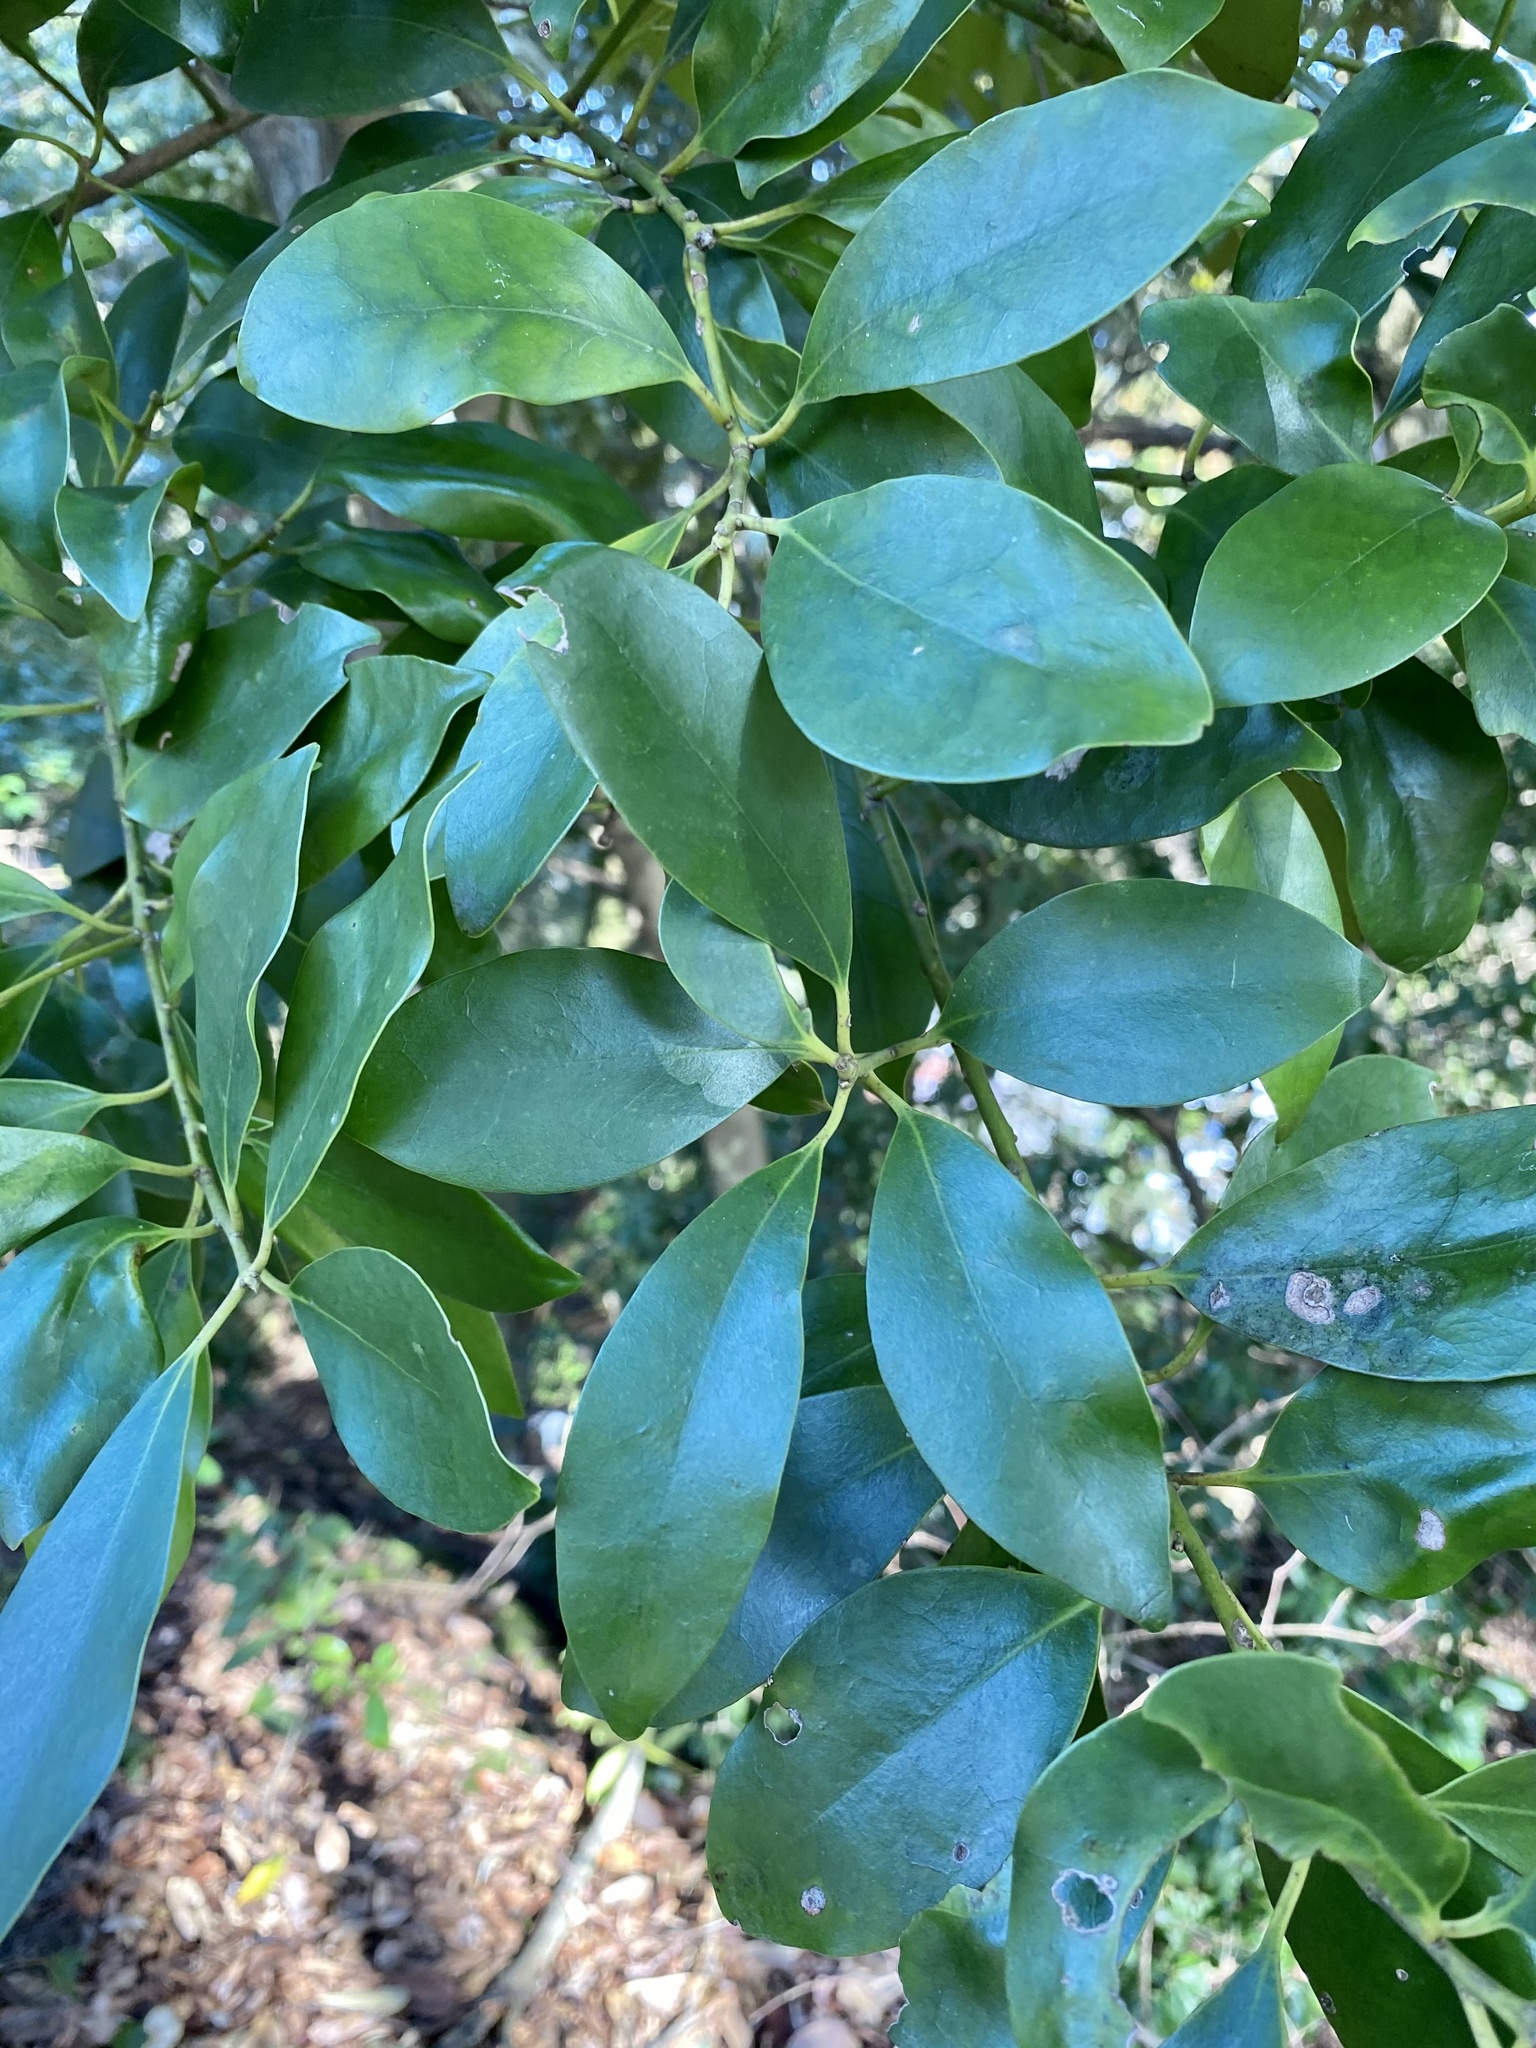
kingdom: Plantae
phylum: Tracheophyta
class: Magnoliopsida
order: Aquifoliales
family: Aquifoliaceae
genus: Ilex
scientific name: Ilex integra
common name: Mochitree
